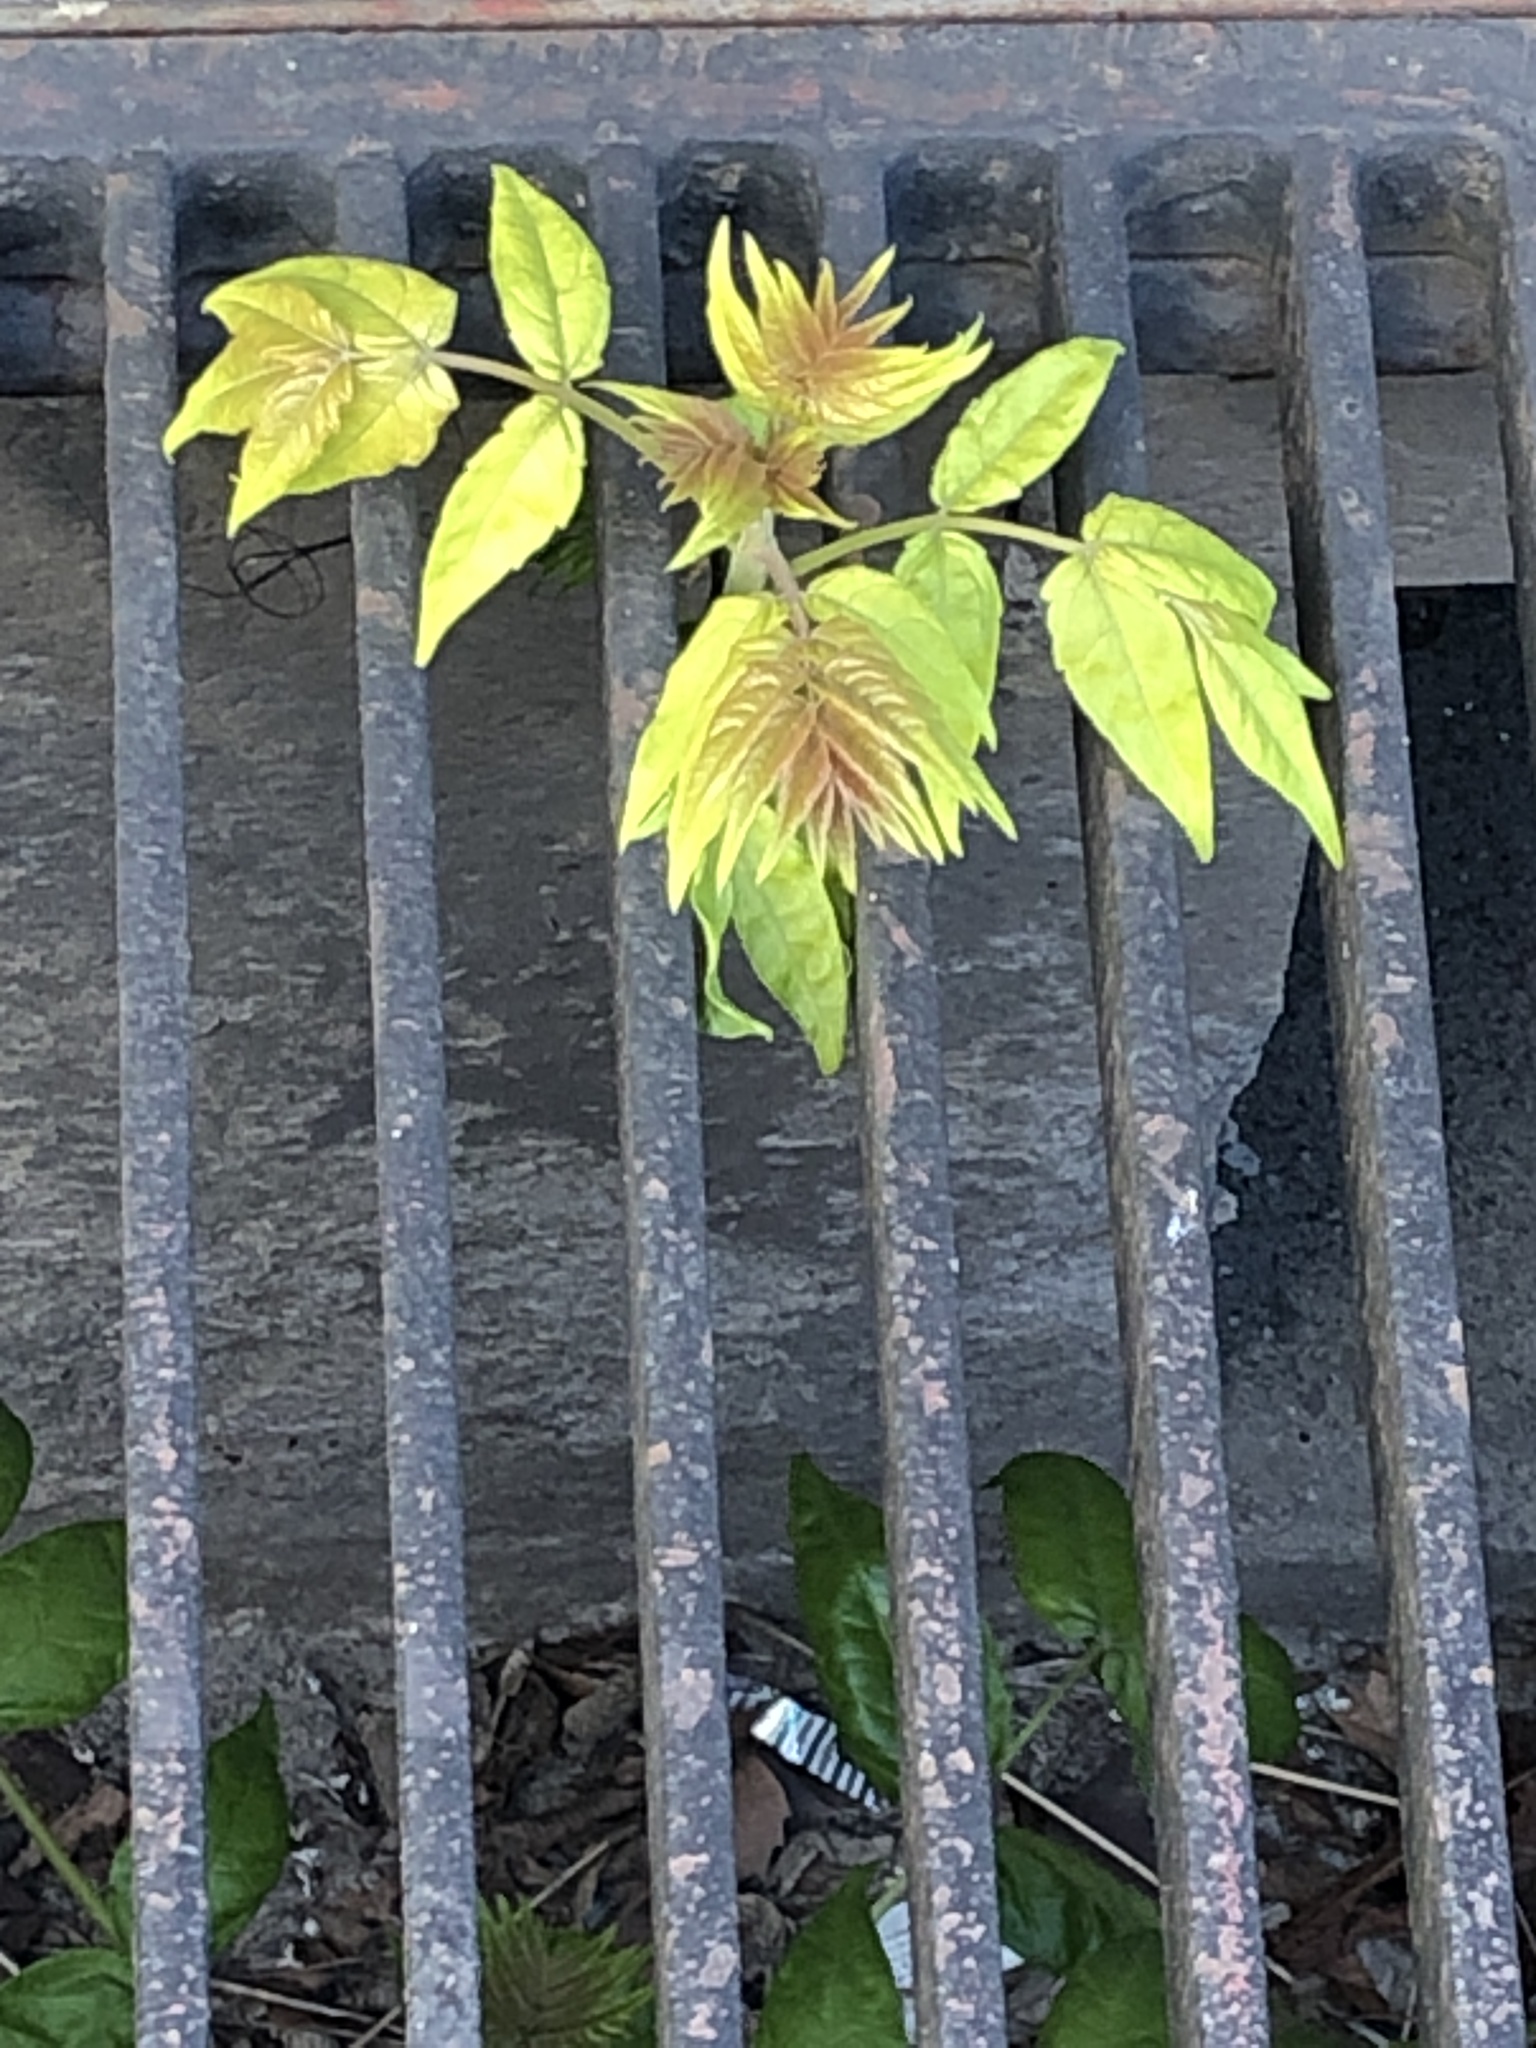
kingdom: Plantae
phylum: Tracheophyta
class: Magnoliopsida
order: Sapindales
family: Simaroubaceae
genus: Ailanthus
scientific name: Ailanthus altissima
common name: Tree-of-heaven
